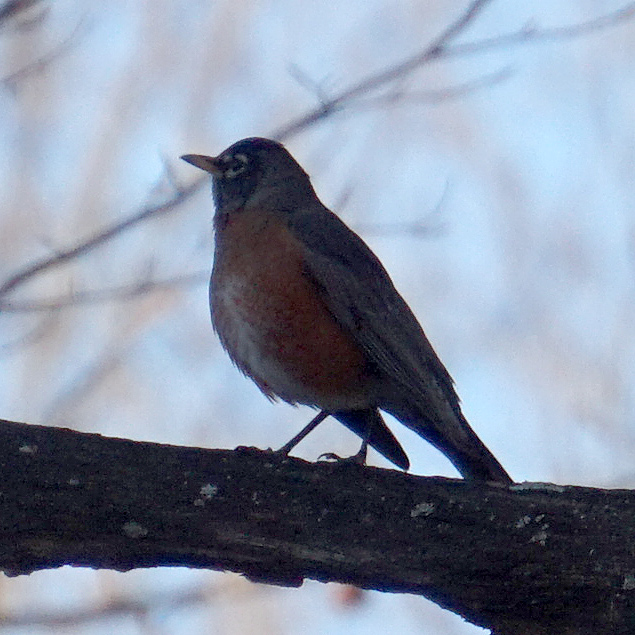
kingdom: Animalia
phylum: Chordata
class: Aves
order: Passeriformes
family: Turdidae
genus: Turdus
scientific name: Turdus migratorius
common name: American robin
